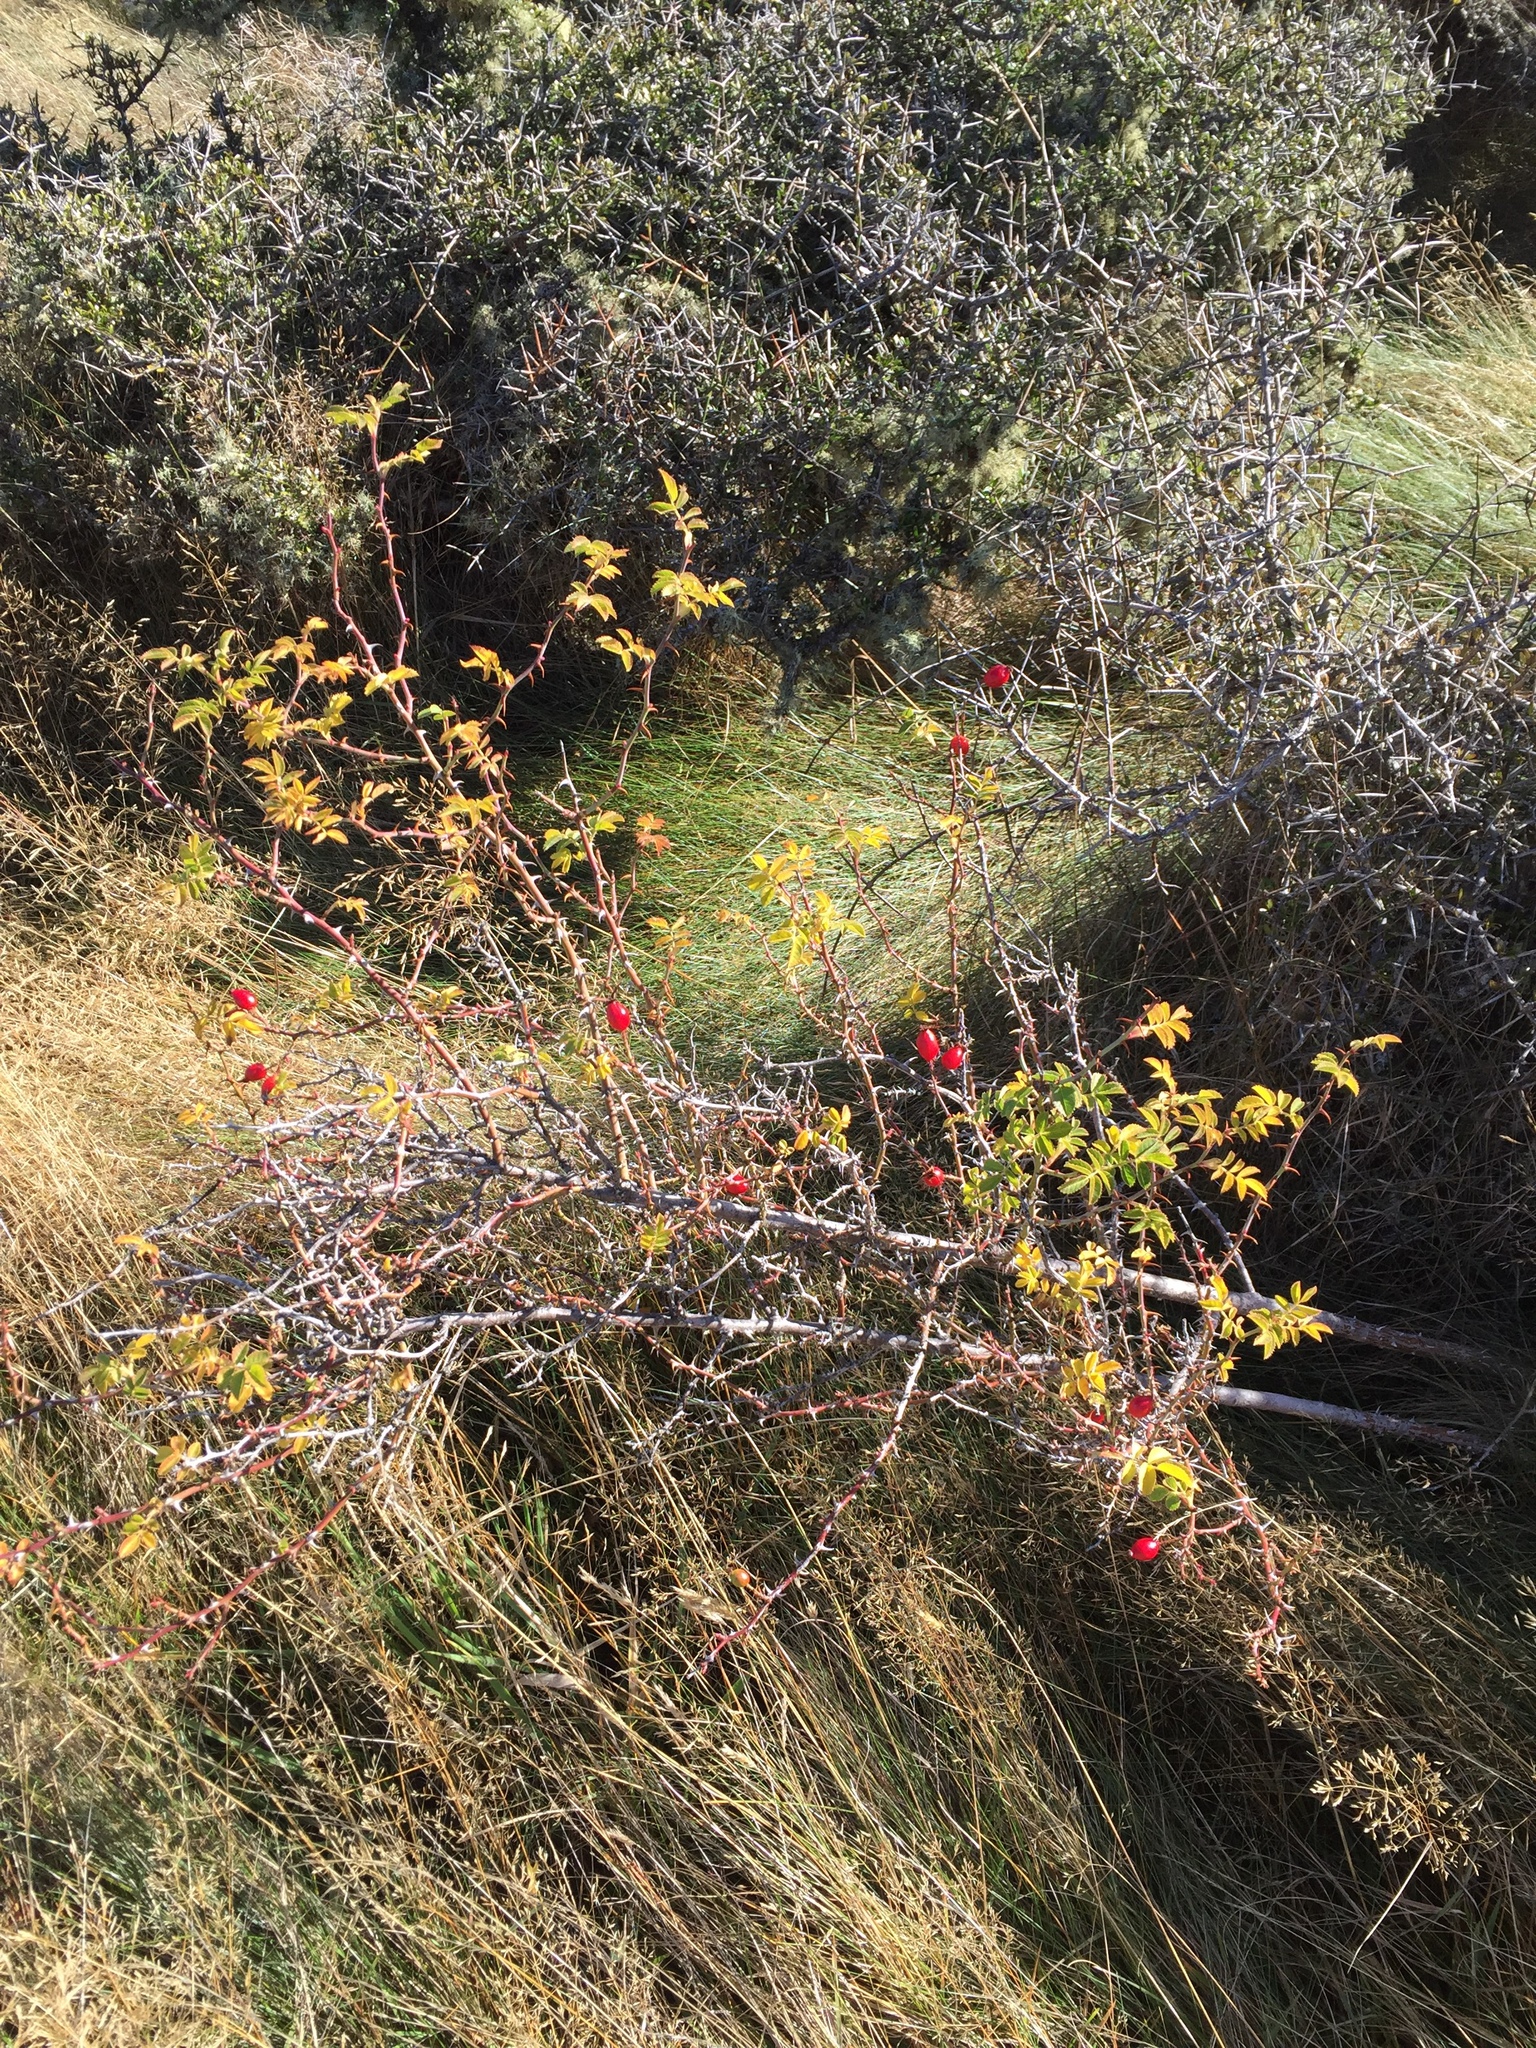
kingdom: Plantae
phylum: Tracheophyta
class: Magnoliopsida
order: Rosales
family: Rosaceae
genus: Rosa
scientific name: Rosa rubiginosa
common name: Sweet-briar
